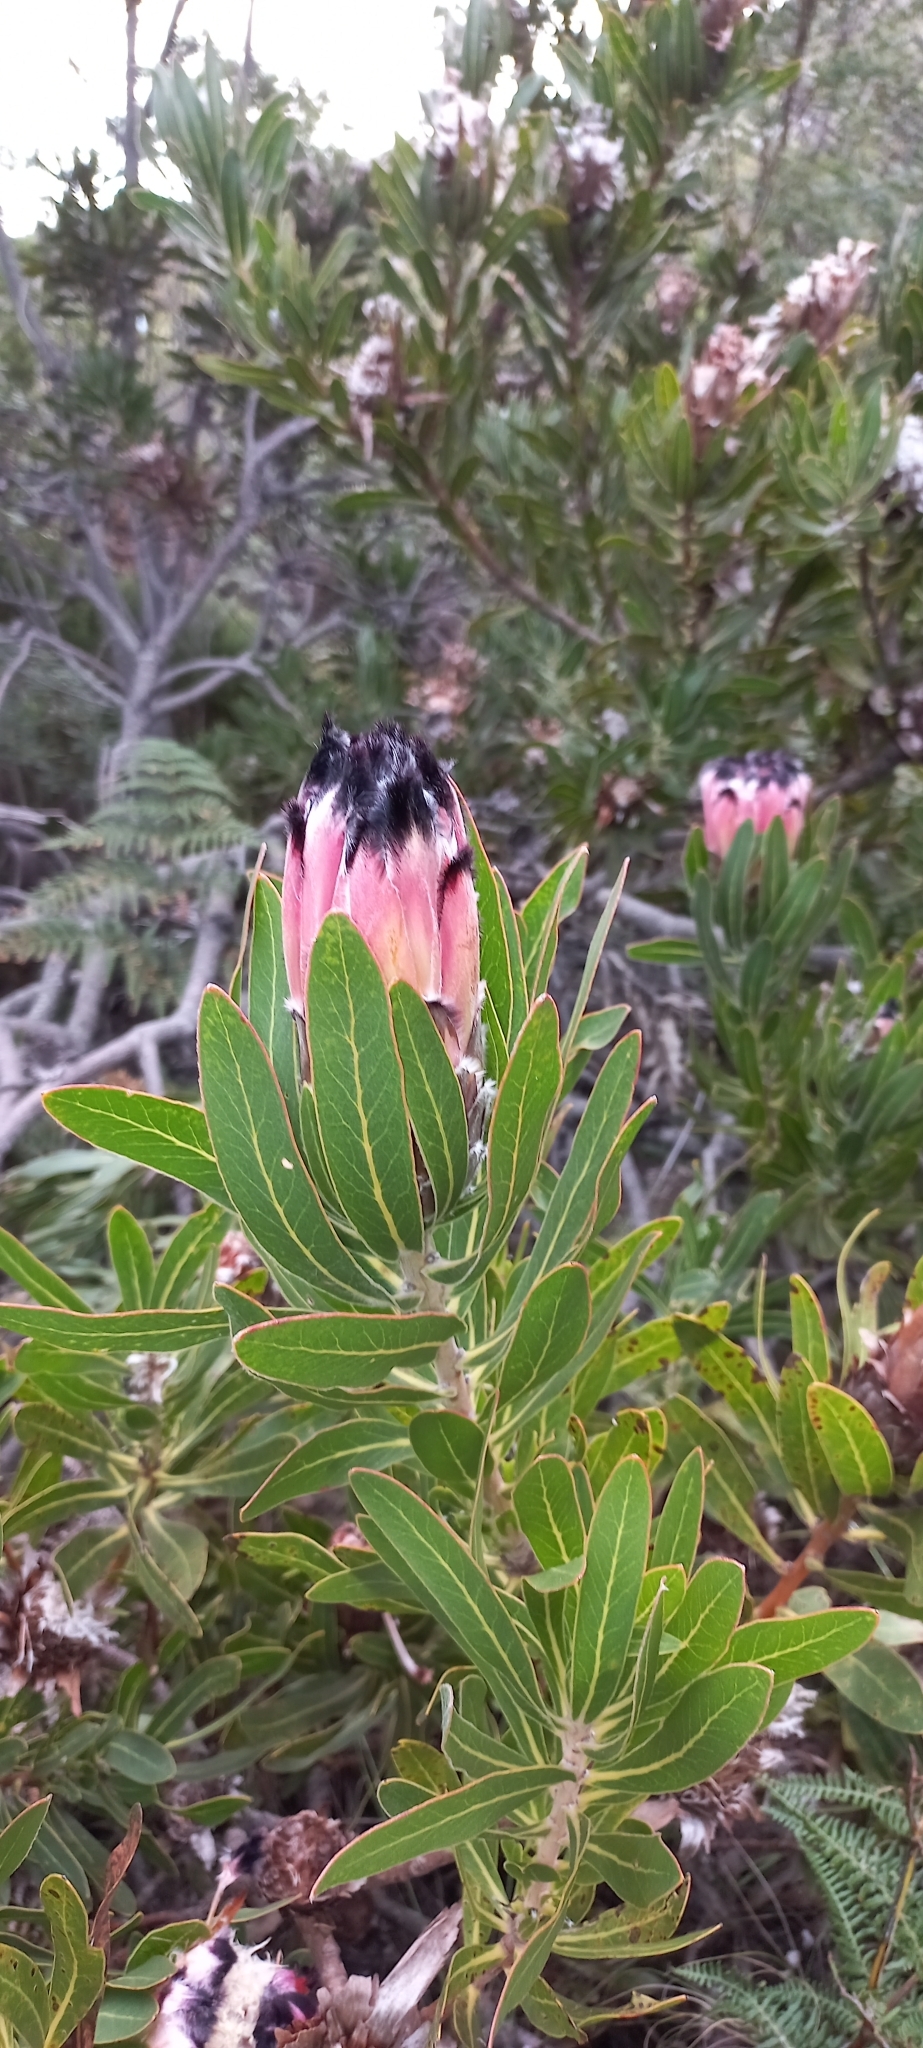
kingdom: Plantae
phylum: Tracheophyta
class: Magnoliopsida
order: Proteales
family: Proteaceae
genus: Protea
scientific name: Protea
